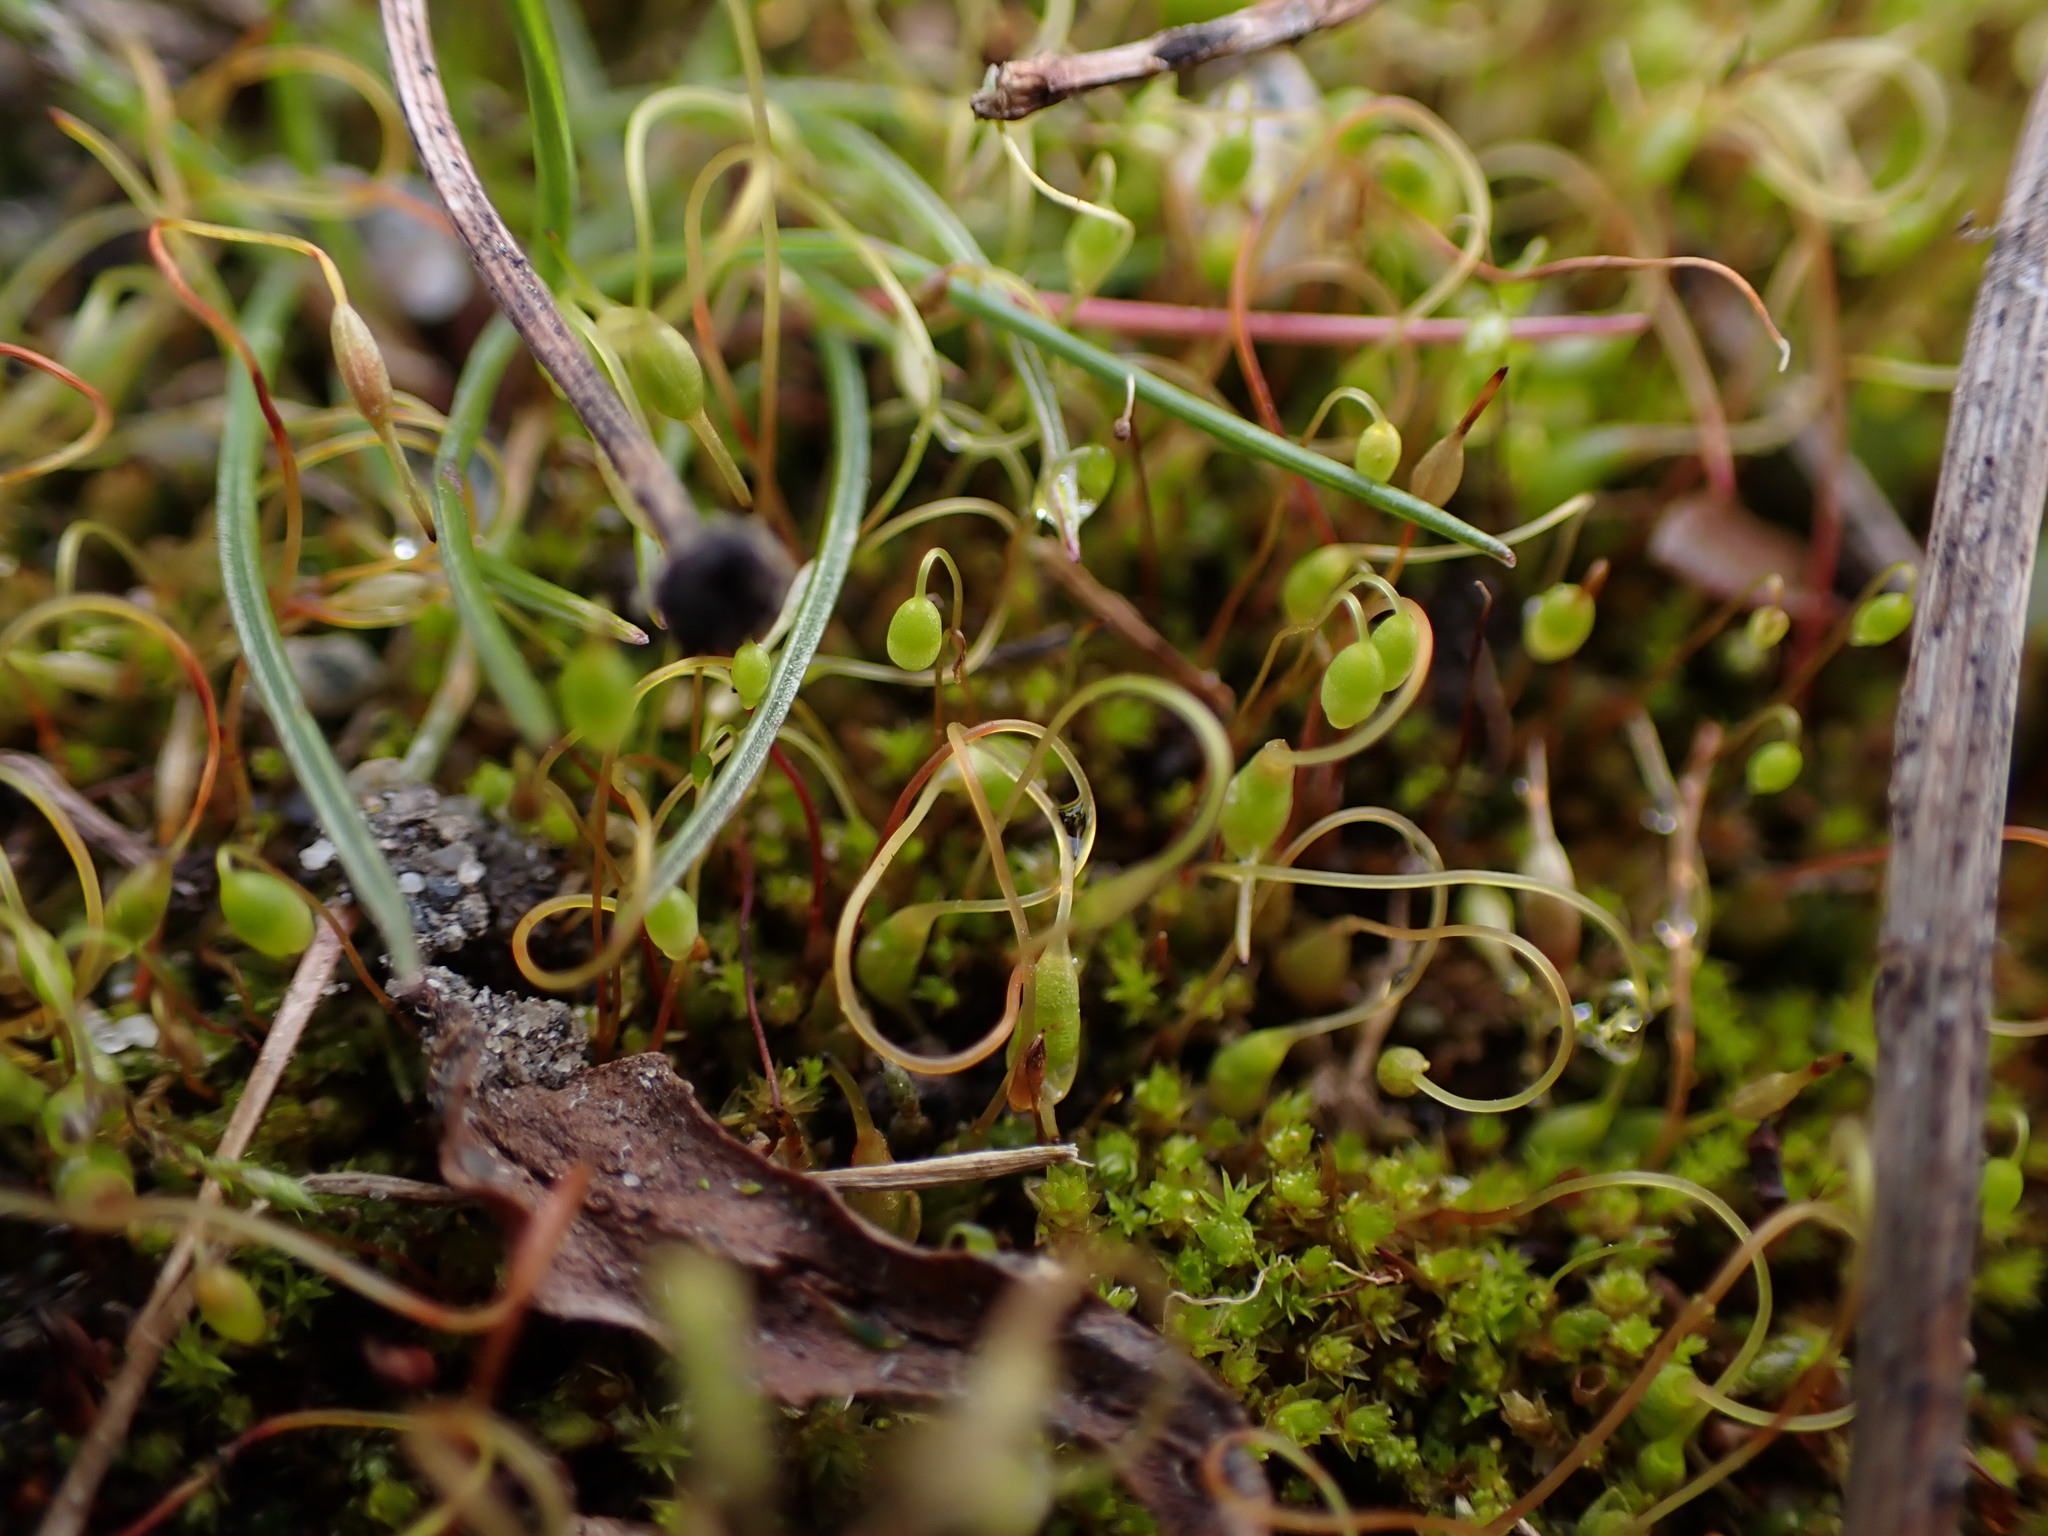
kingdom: Plantae
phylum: Bryophyta
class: Bryopsida
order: Funariales
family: Funariaceae
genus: Funaria
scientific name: Funaria hygrometrica
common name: Common cord moss
